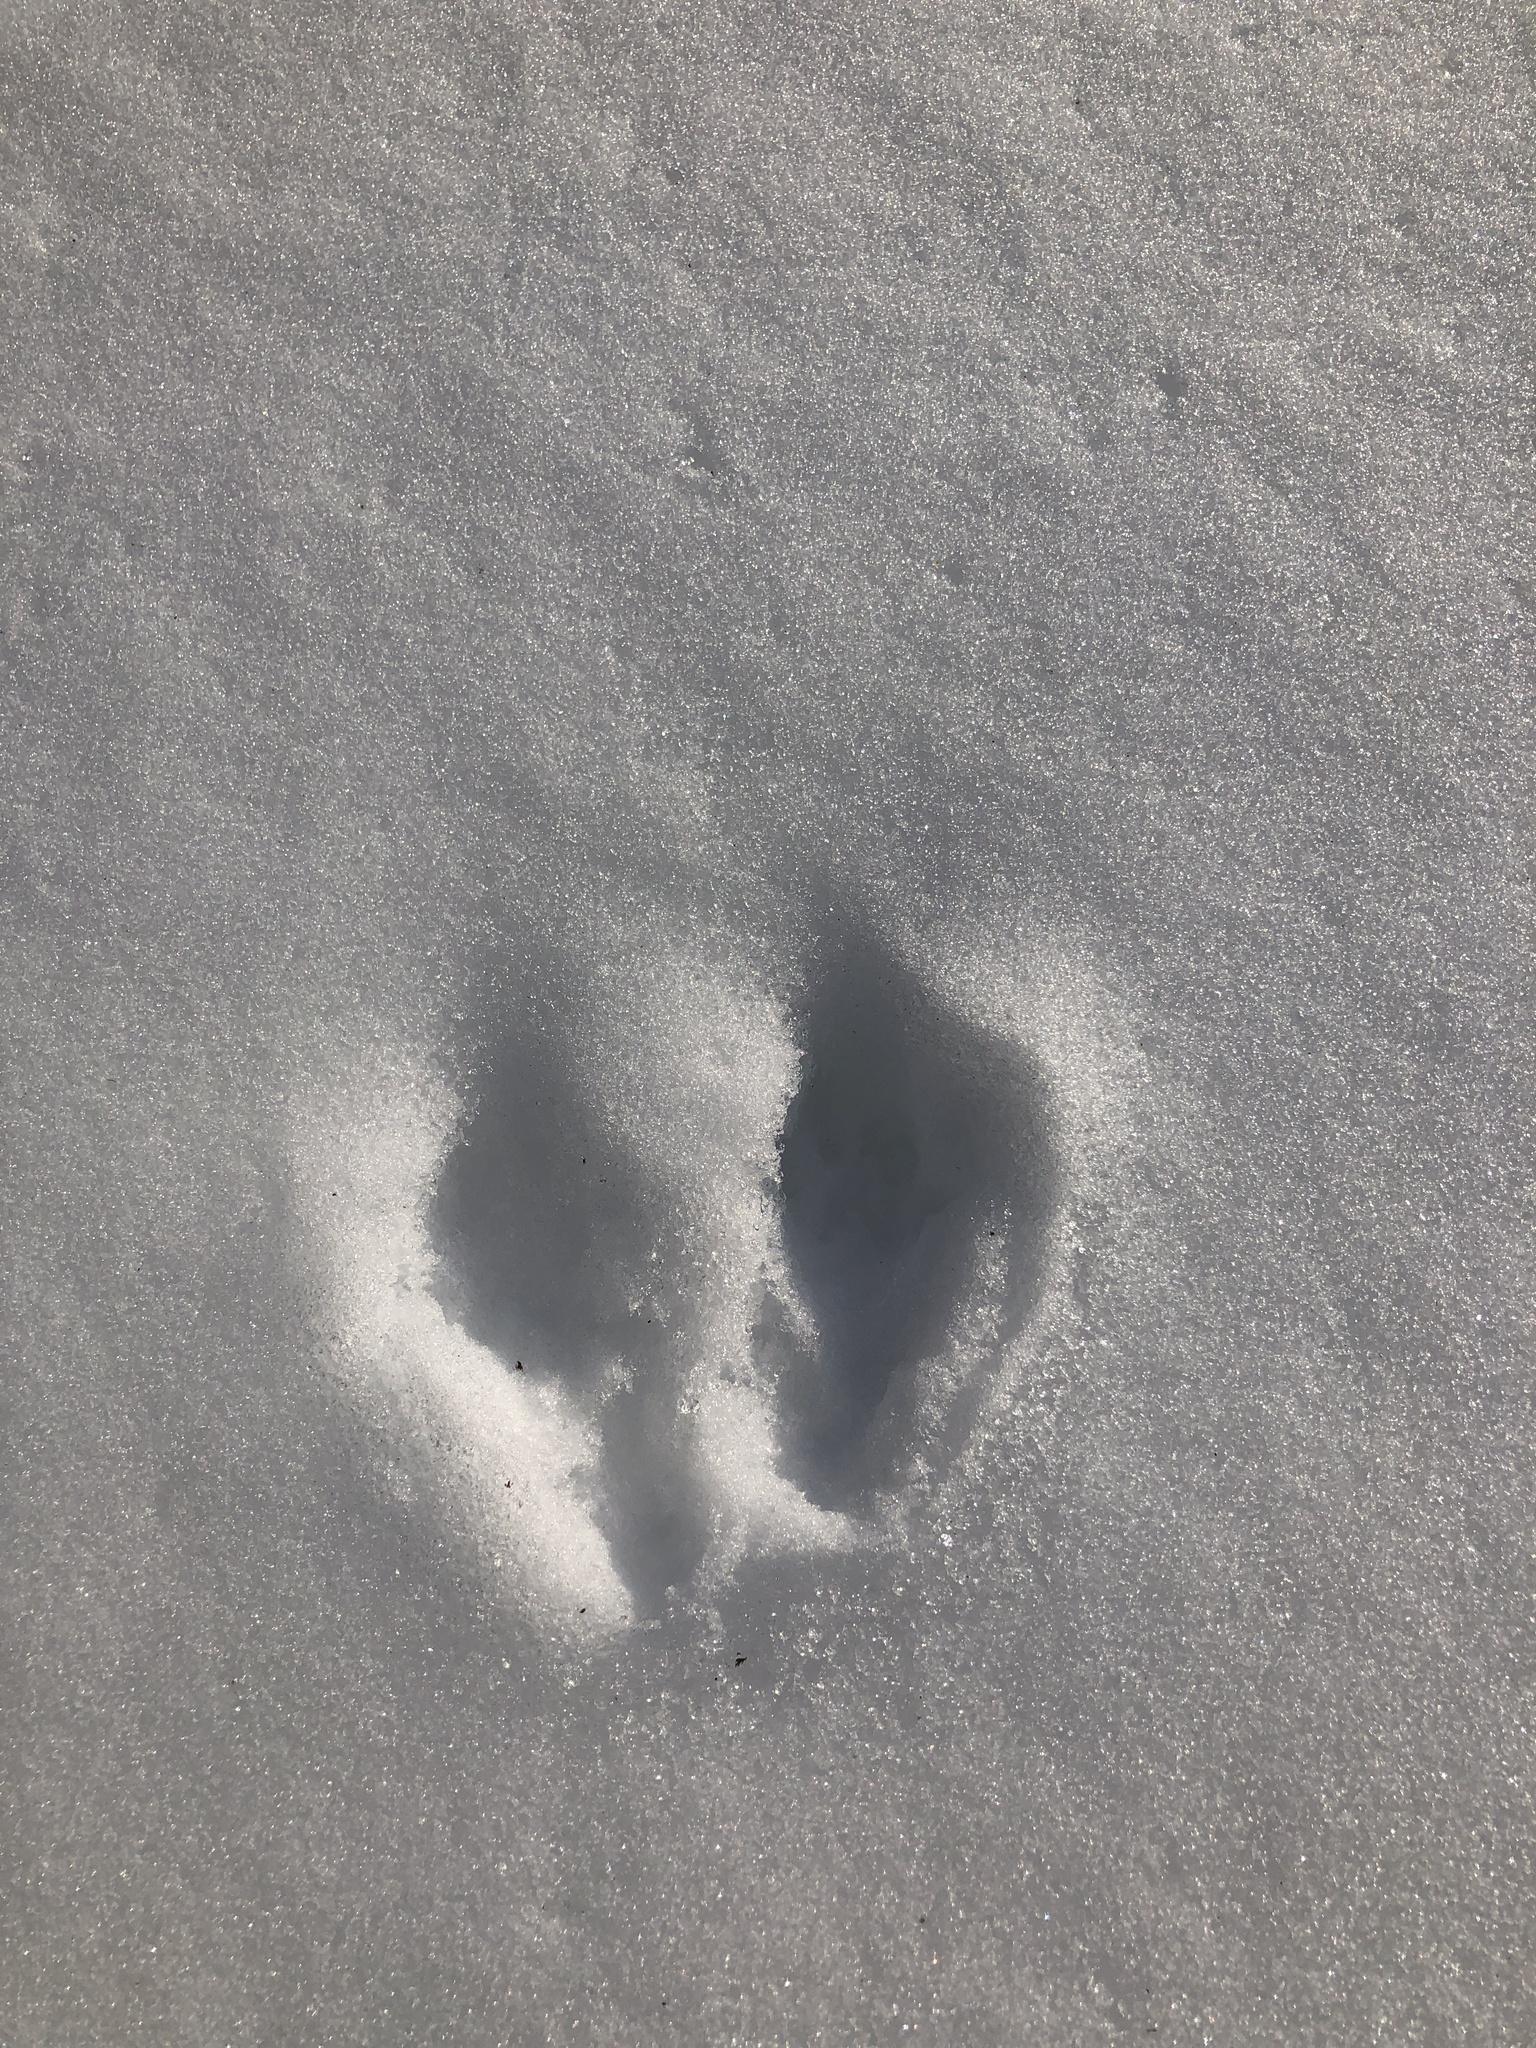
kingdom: Animalia
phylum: Chordata
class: Mammalia
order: Lagomorpha
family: Leporidae
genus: Sylvilagus
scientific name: Sylvilagus floridanus
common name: Eastern cottontail
